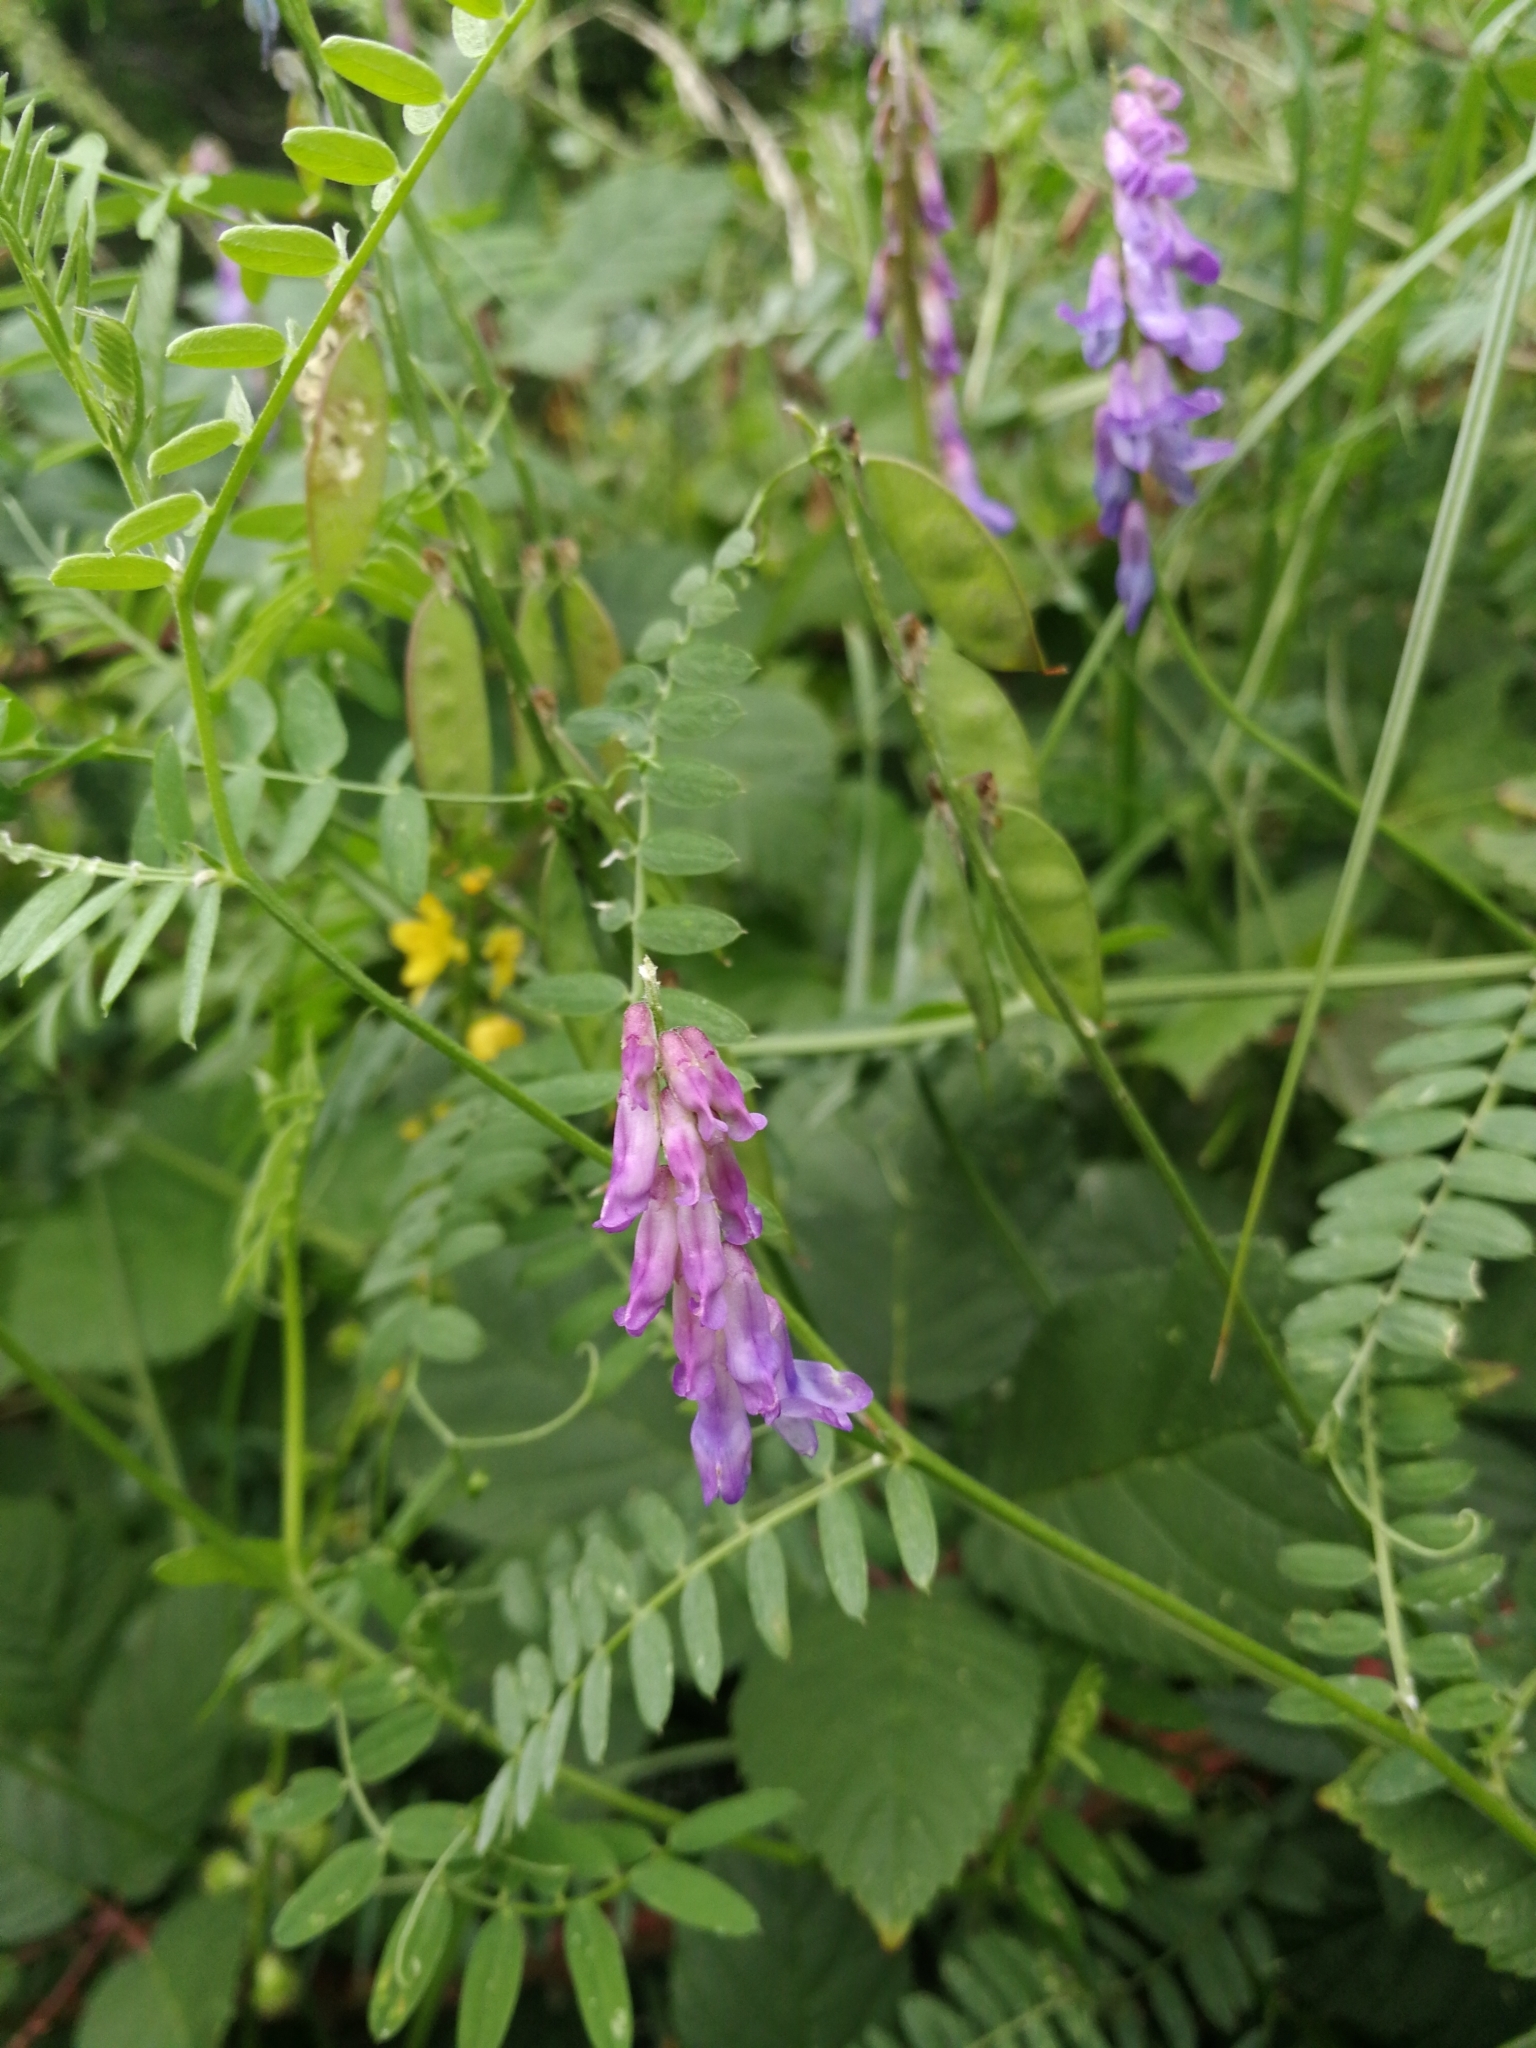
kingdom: Plantae
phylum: Tracheophyta
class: Magnoliopsida
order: Fabales
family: Fabaceae
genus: Vicia
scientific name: Vicia cracca
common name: Bird vetch
